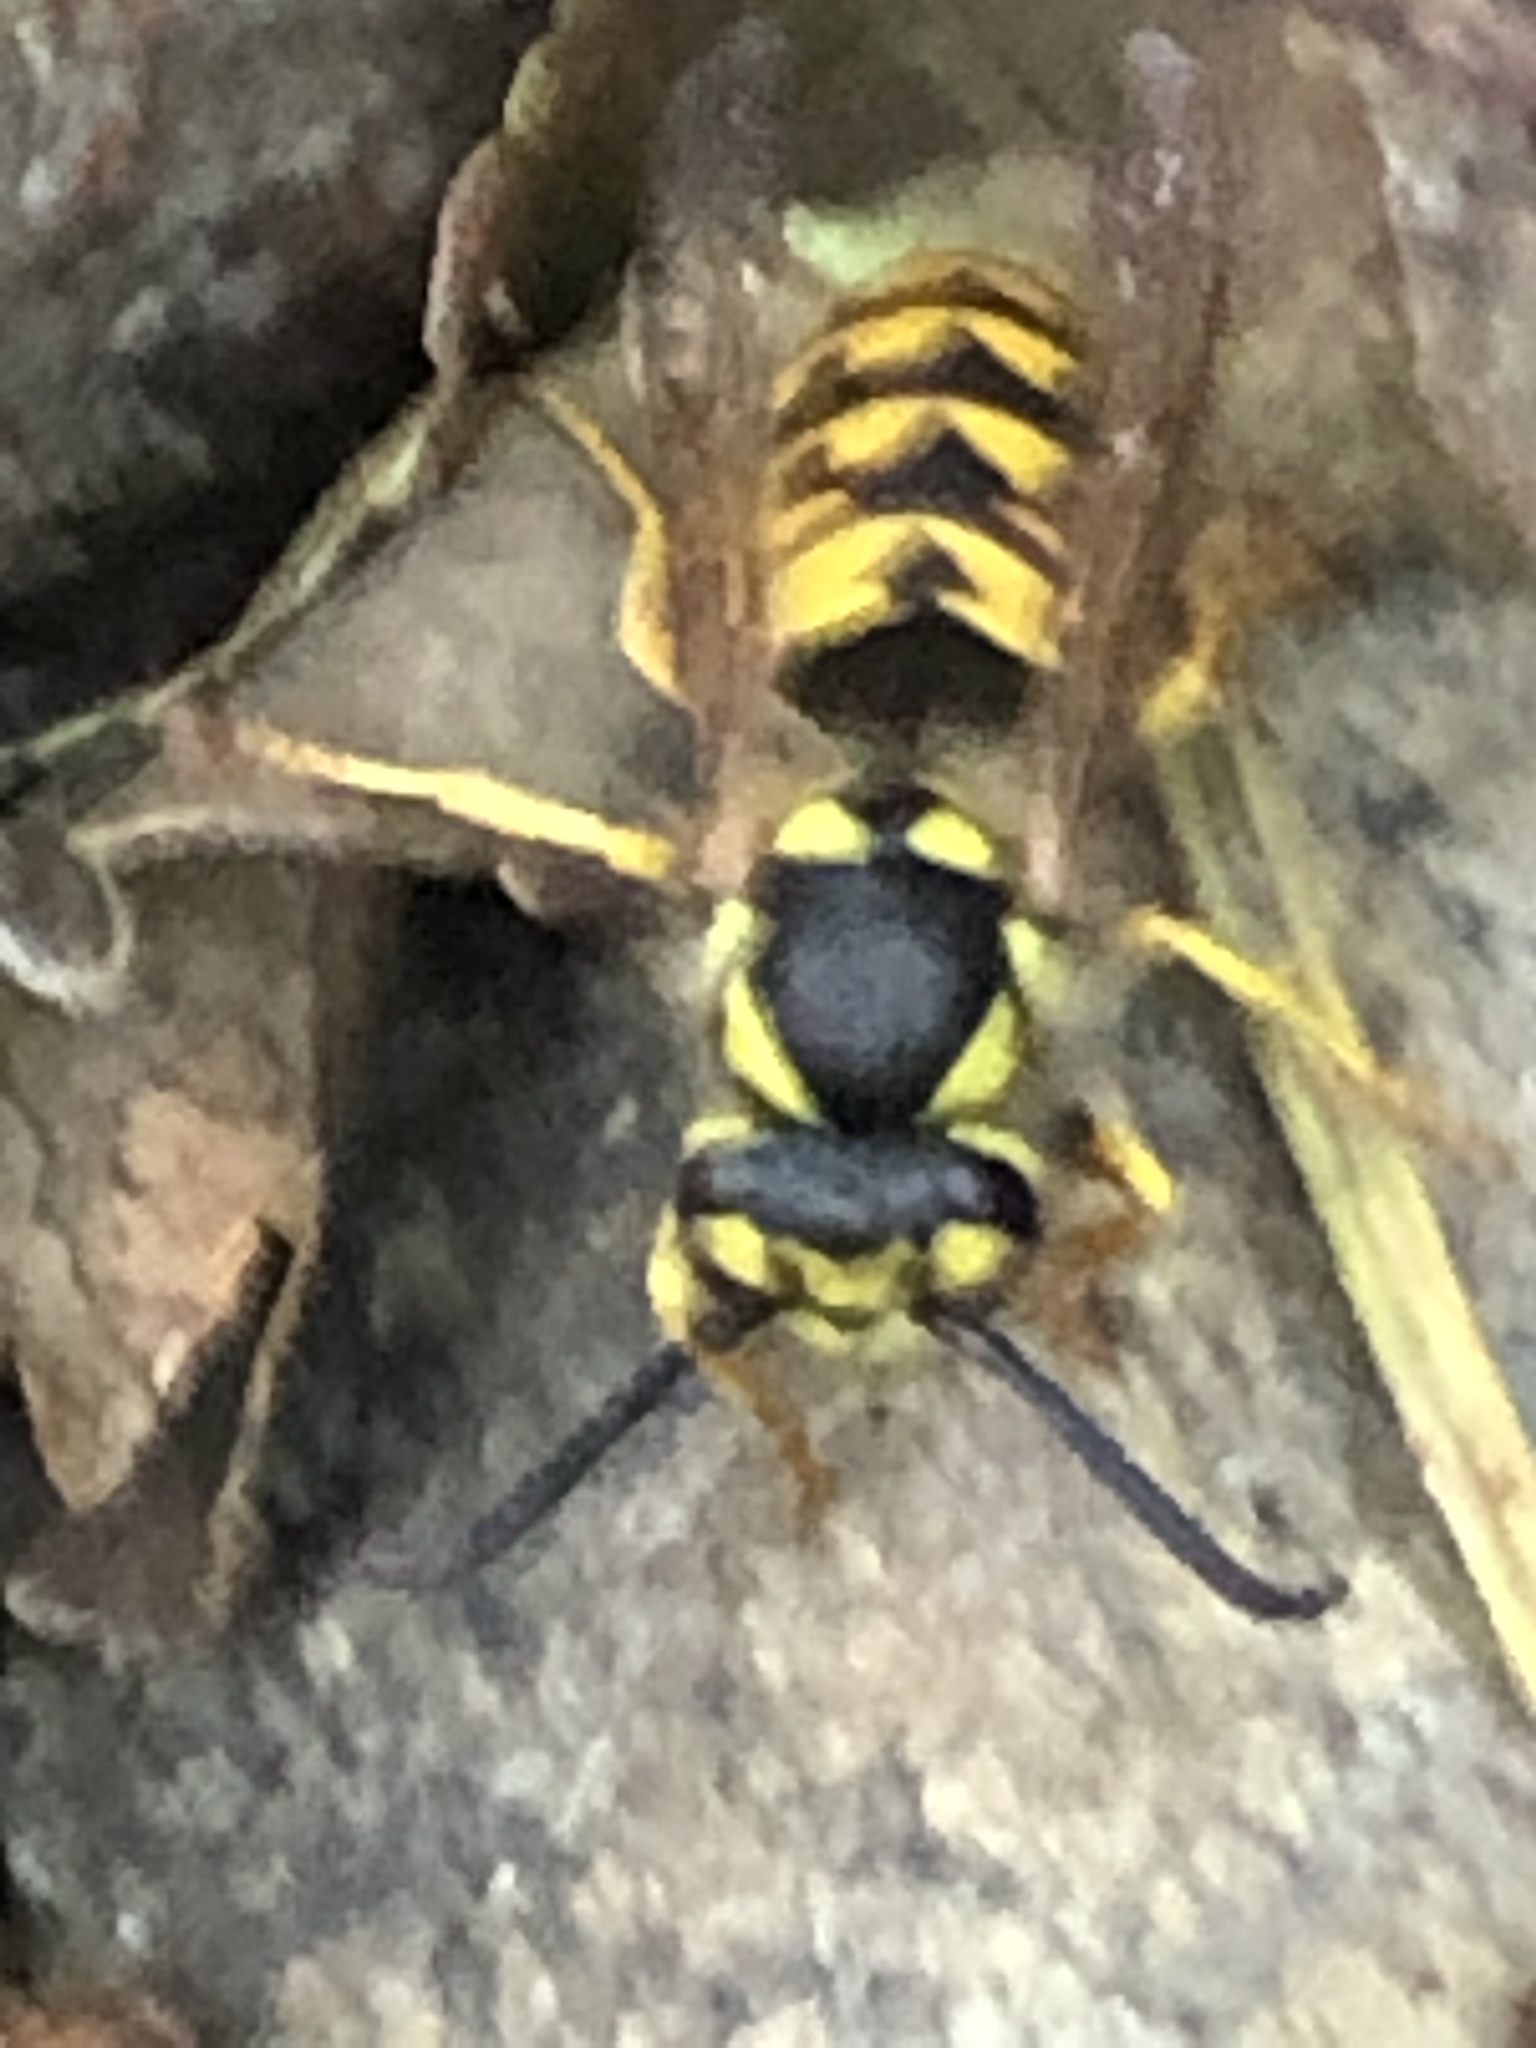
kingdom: Animalia
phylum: Arthropoda
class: Insecta
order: Hymenoptera
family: Vespidae
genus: Vespula
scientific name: Vespula germanica
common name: German wasp
